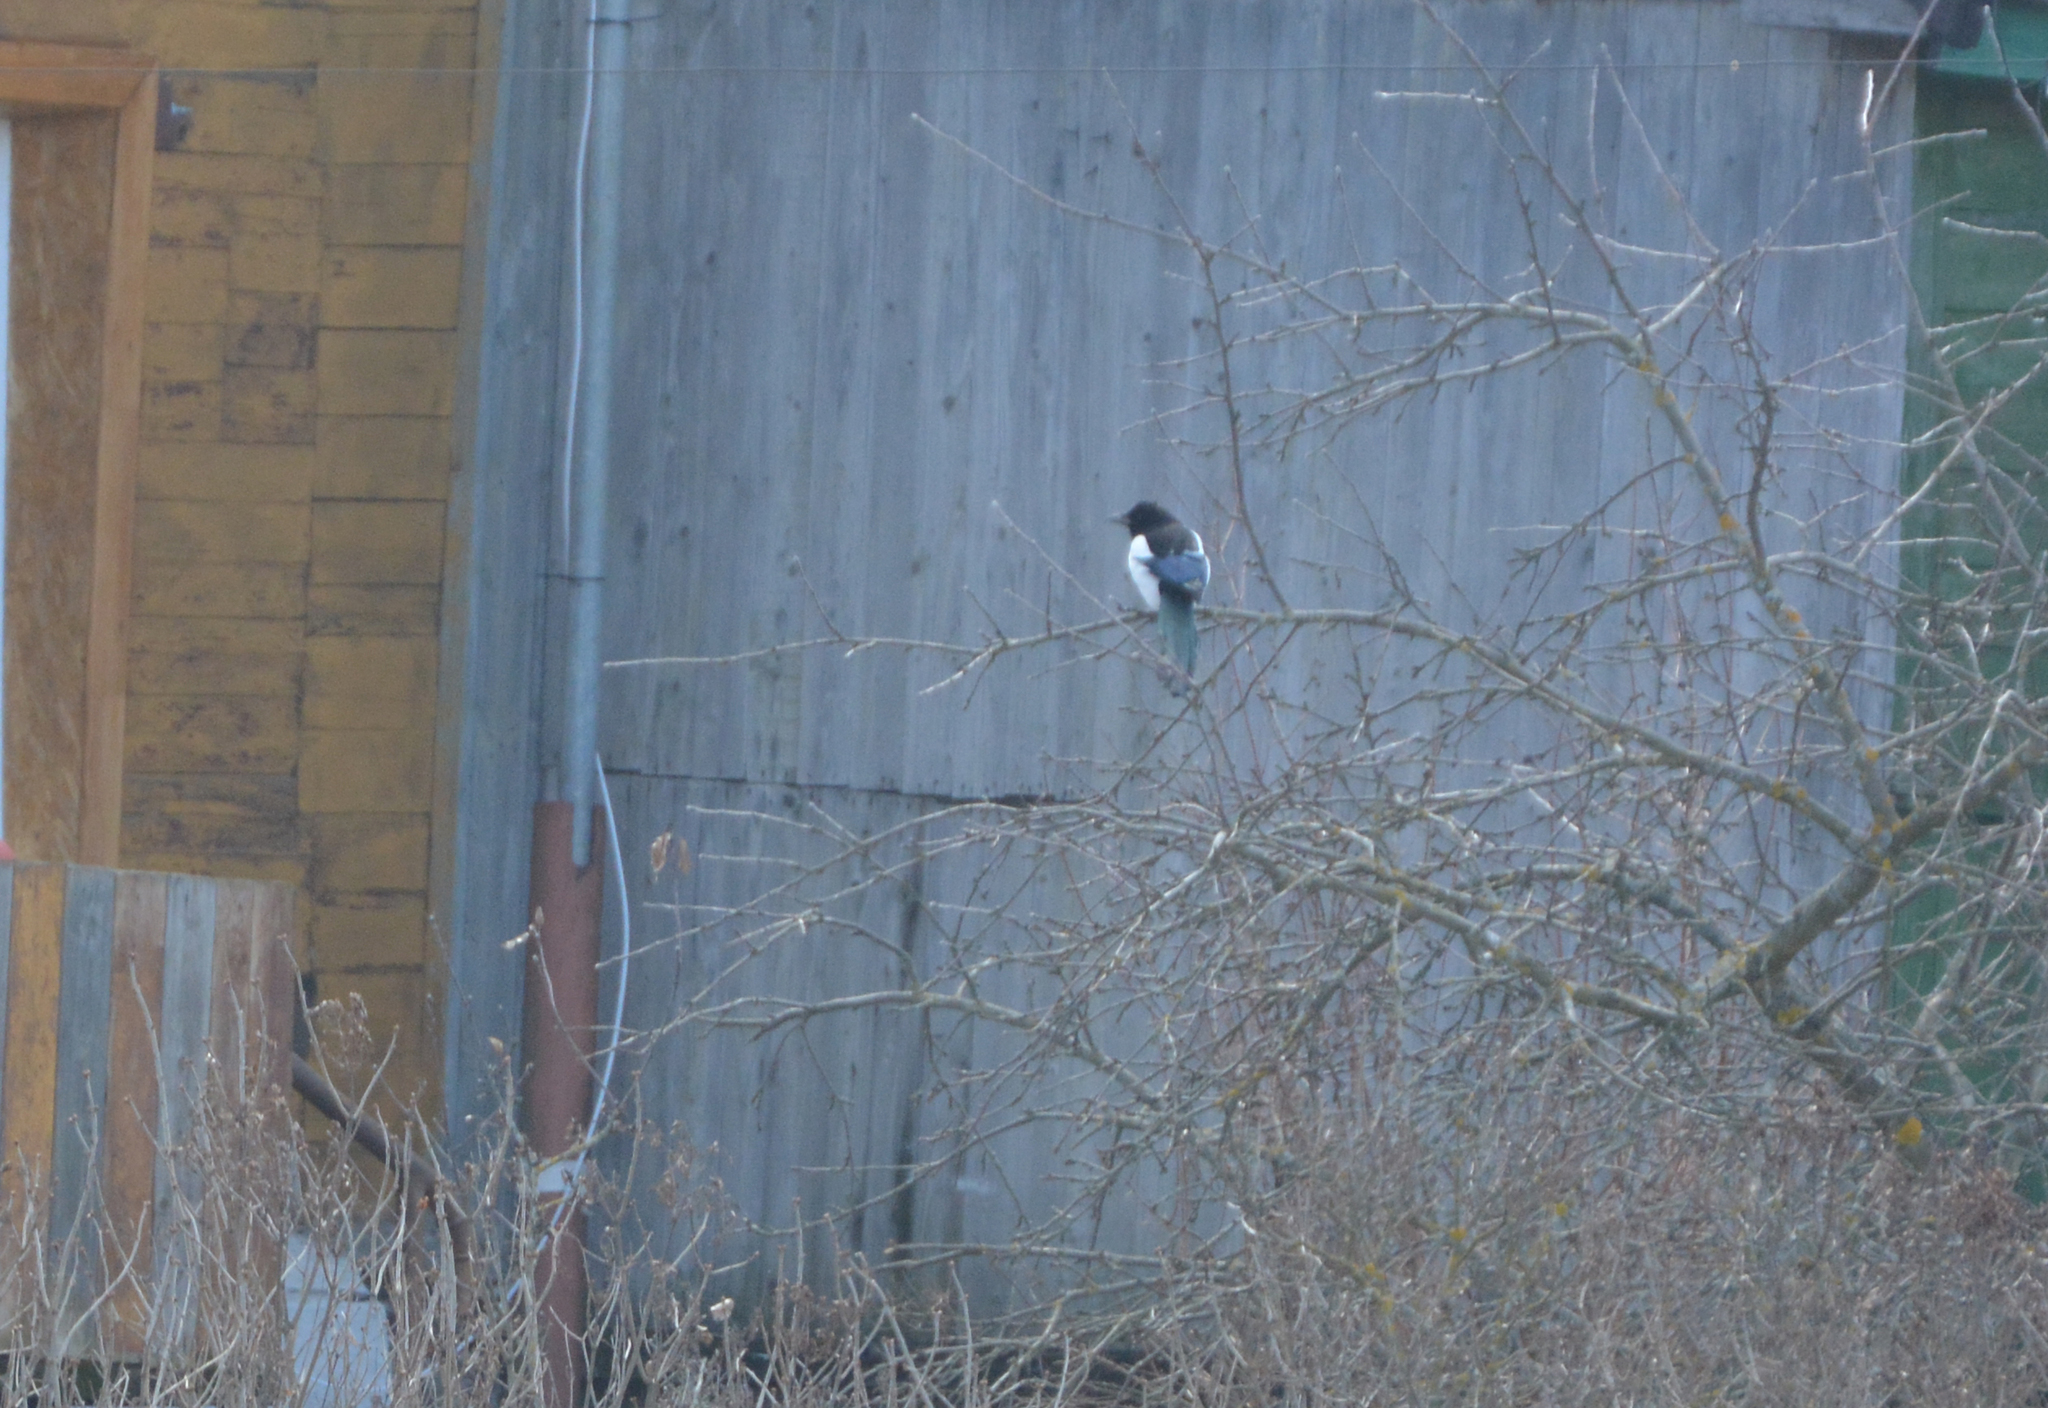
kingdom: Animalia
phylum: Chordata
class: Aves
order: Passeriformes
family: Corvidae
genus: Pica
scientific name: Pica pica
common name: Eurasian magpie
